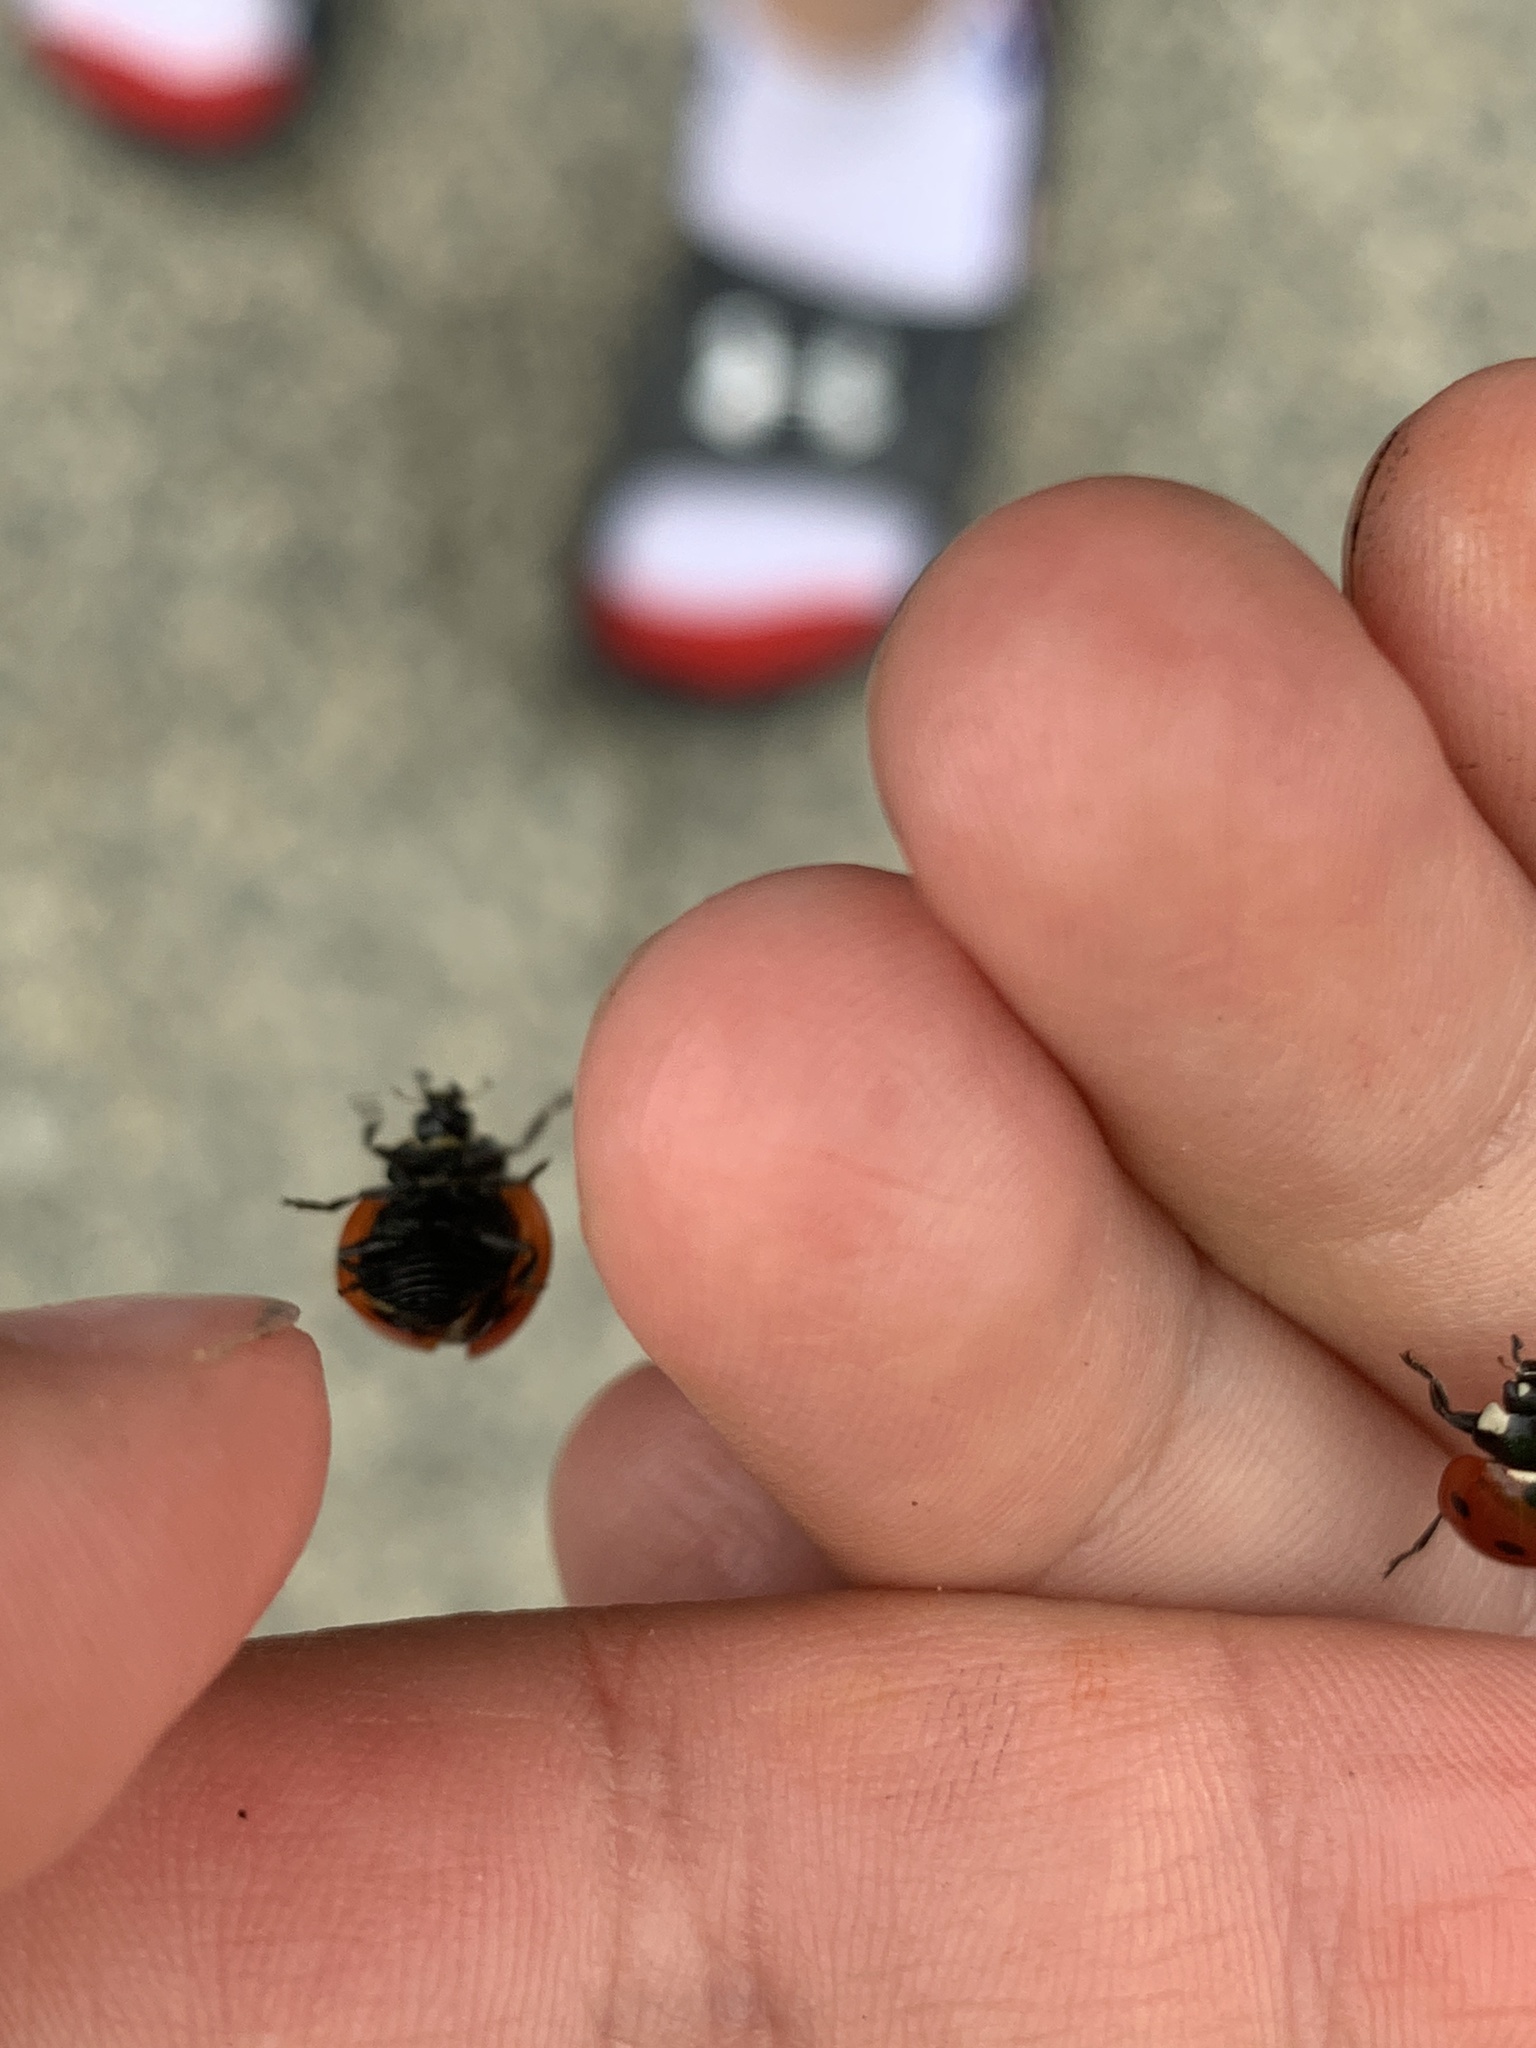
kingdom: Animalia
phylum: Arthropoda
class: Insecta
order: Coleoptera
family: Coccinellidae
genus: Coccinella
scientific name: Coccinella septempunctata
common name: Sevenspotted lady beetle
